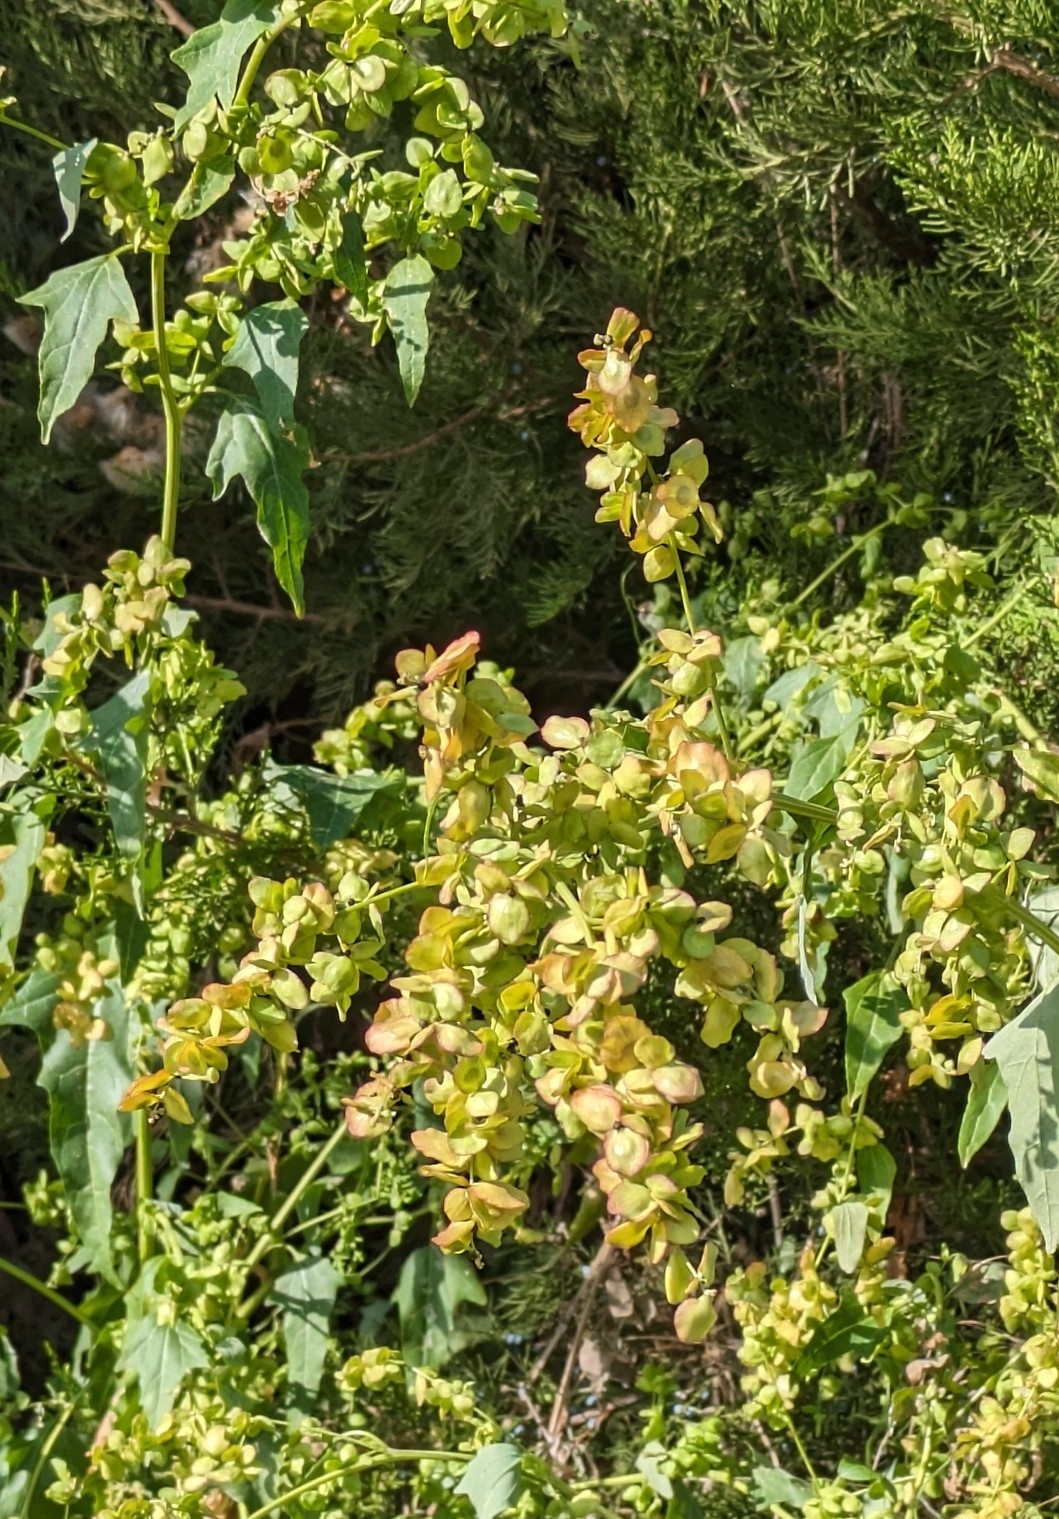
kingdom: Plantae
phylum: Tracheophyta
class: Magnoliopsida
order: Caryophyllales
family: Amaranthaceae
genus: Atriplex
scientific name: Atriplex sagittata
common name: Purple orache
